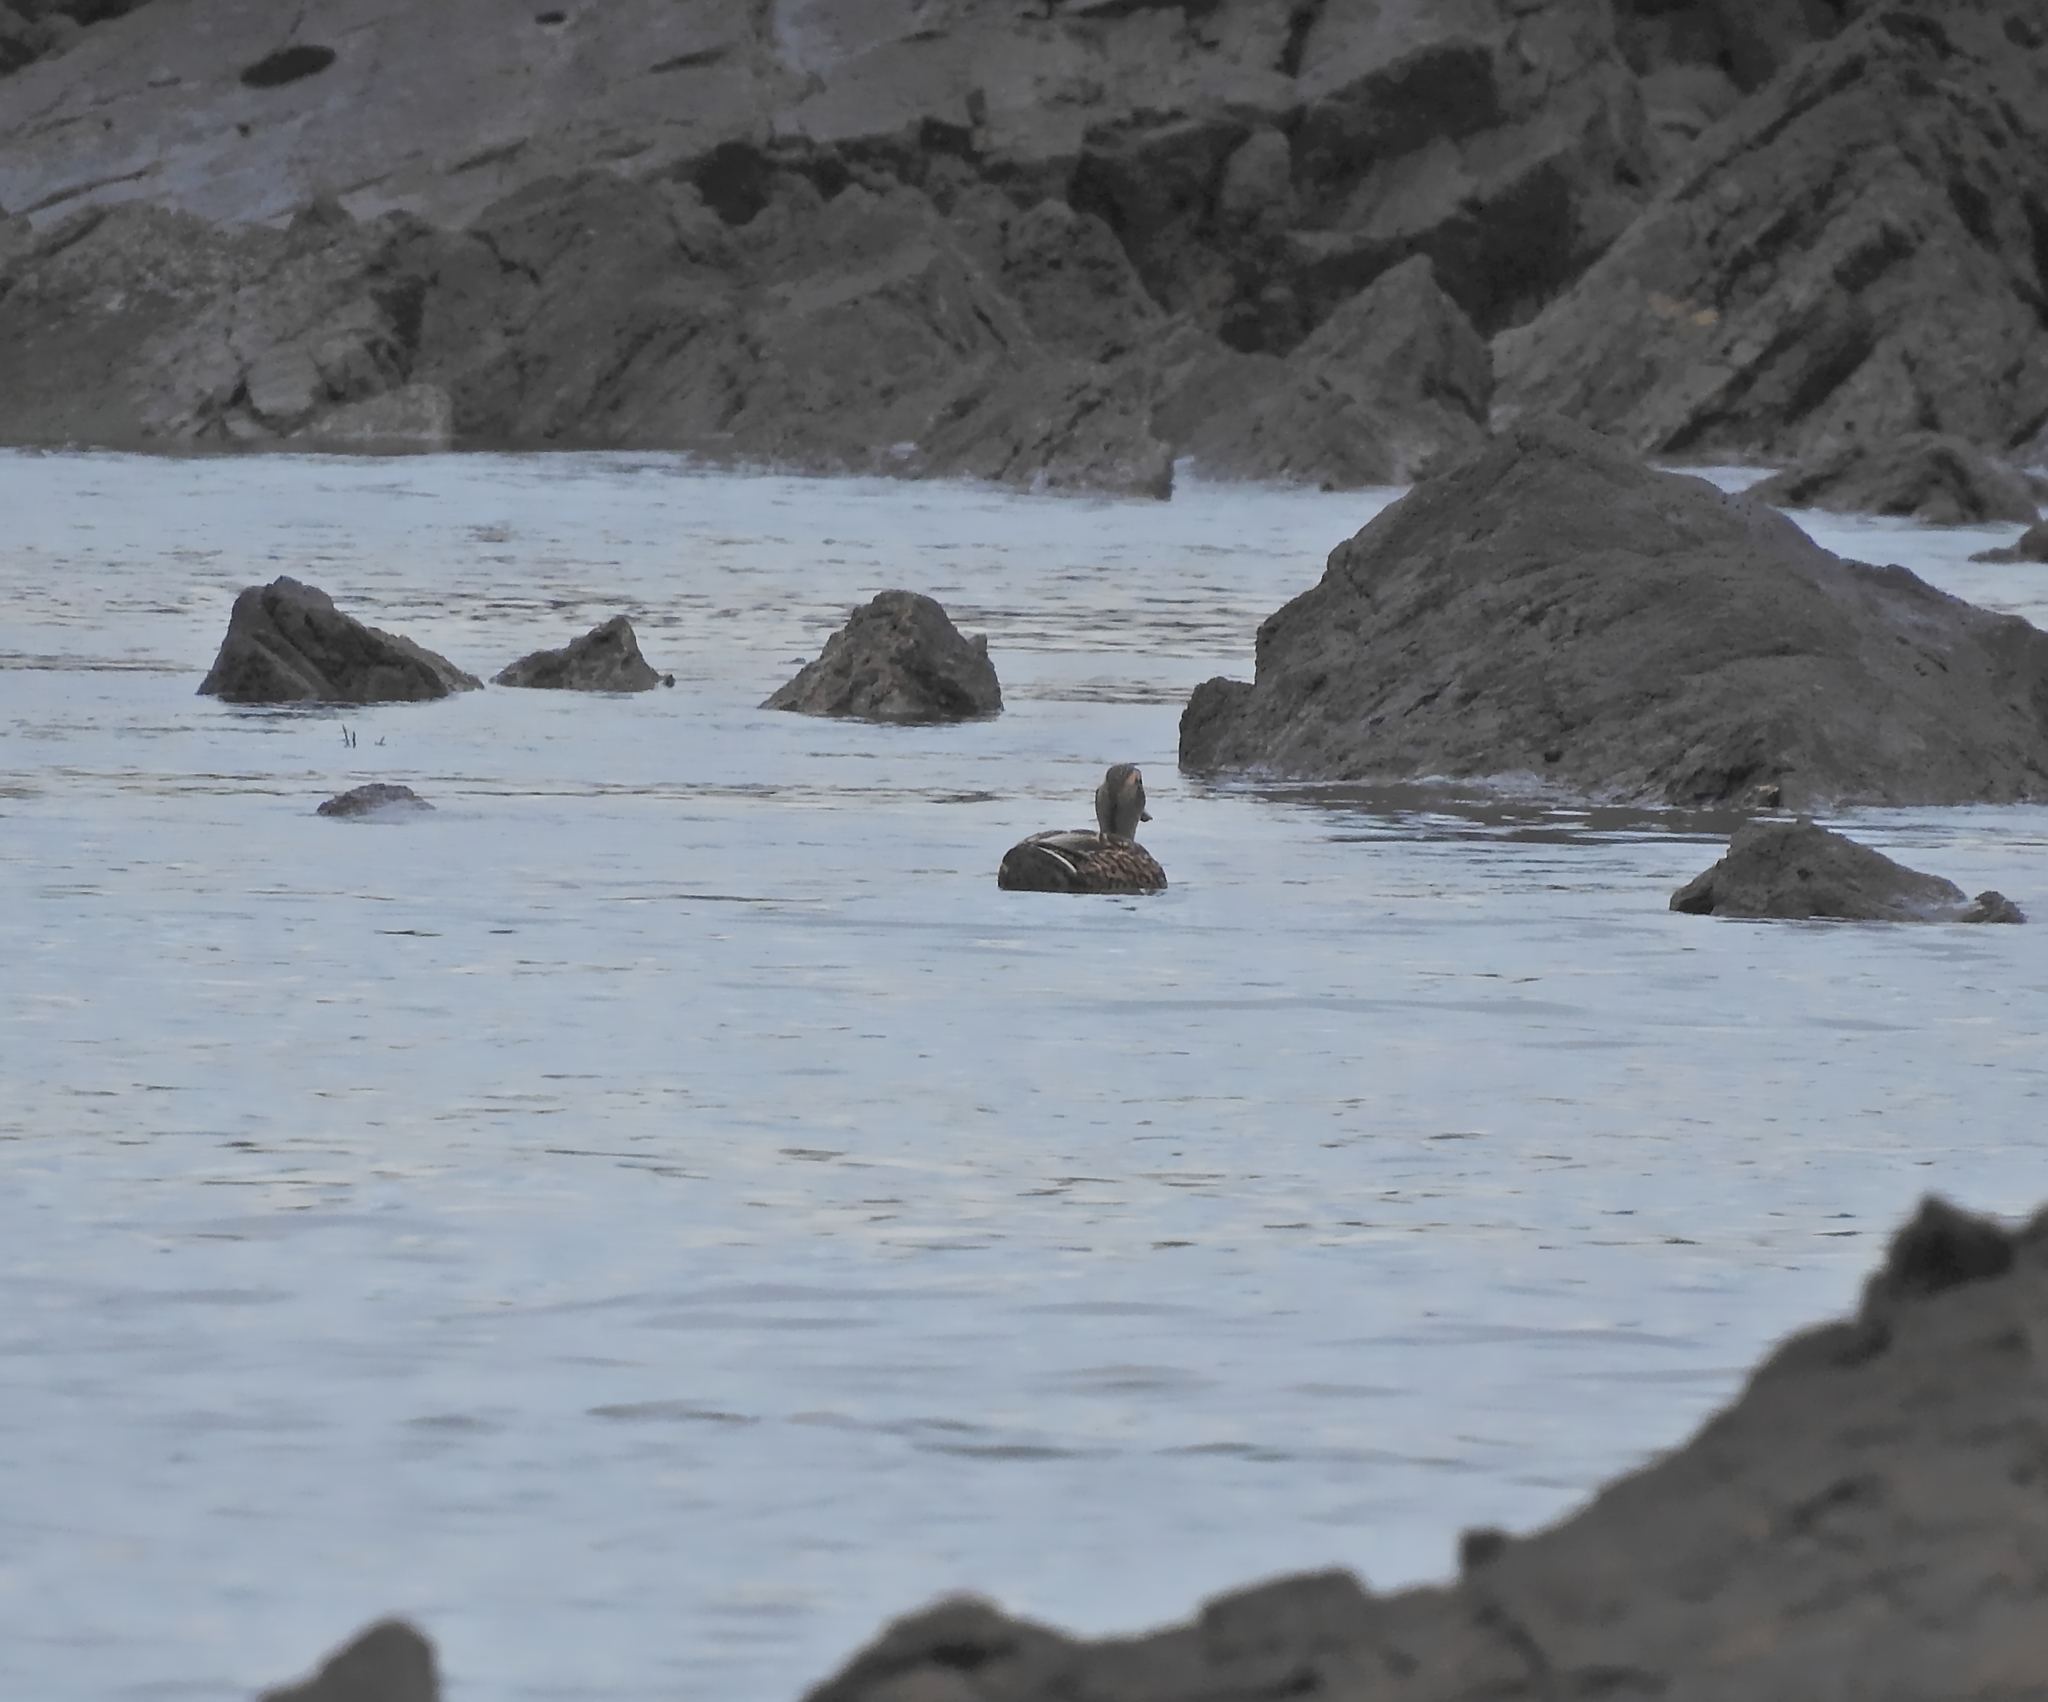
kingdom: Animalia
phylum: Chordata
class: Aves
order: Anseriformes
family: Anatidae
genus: Anas
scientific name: Anas platyrhynchos
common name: Mallard
